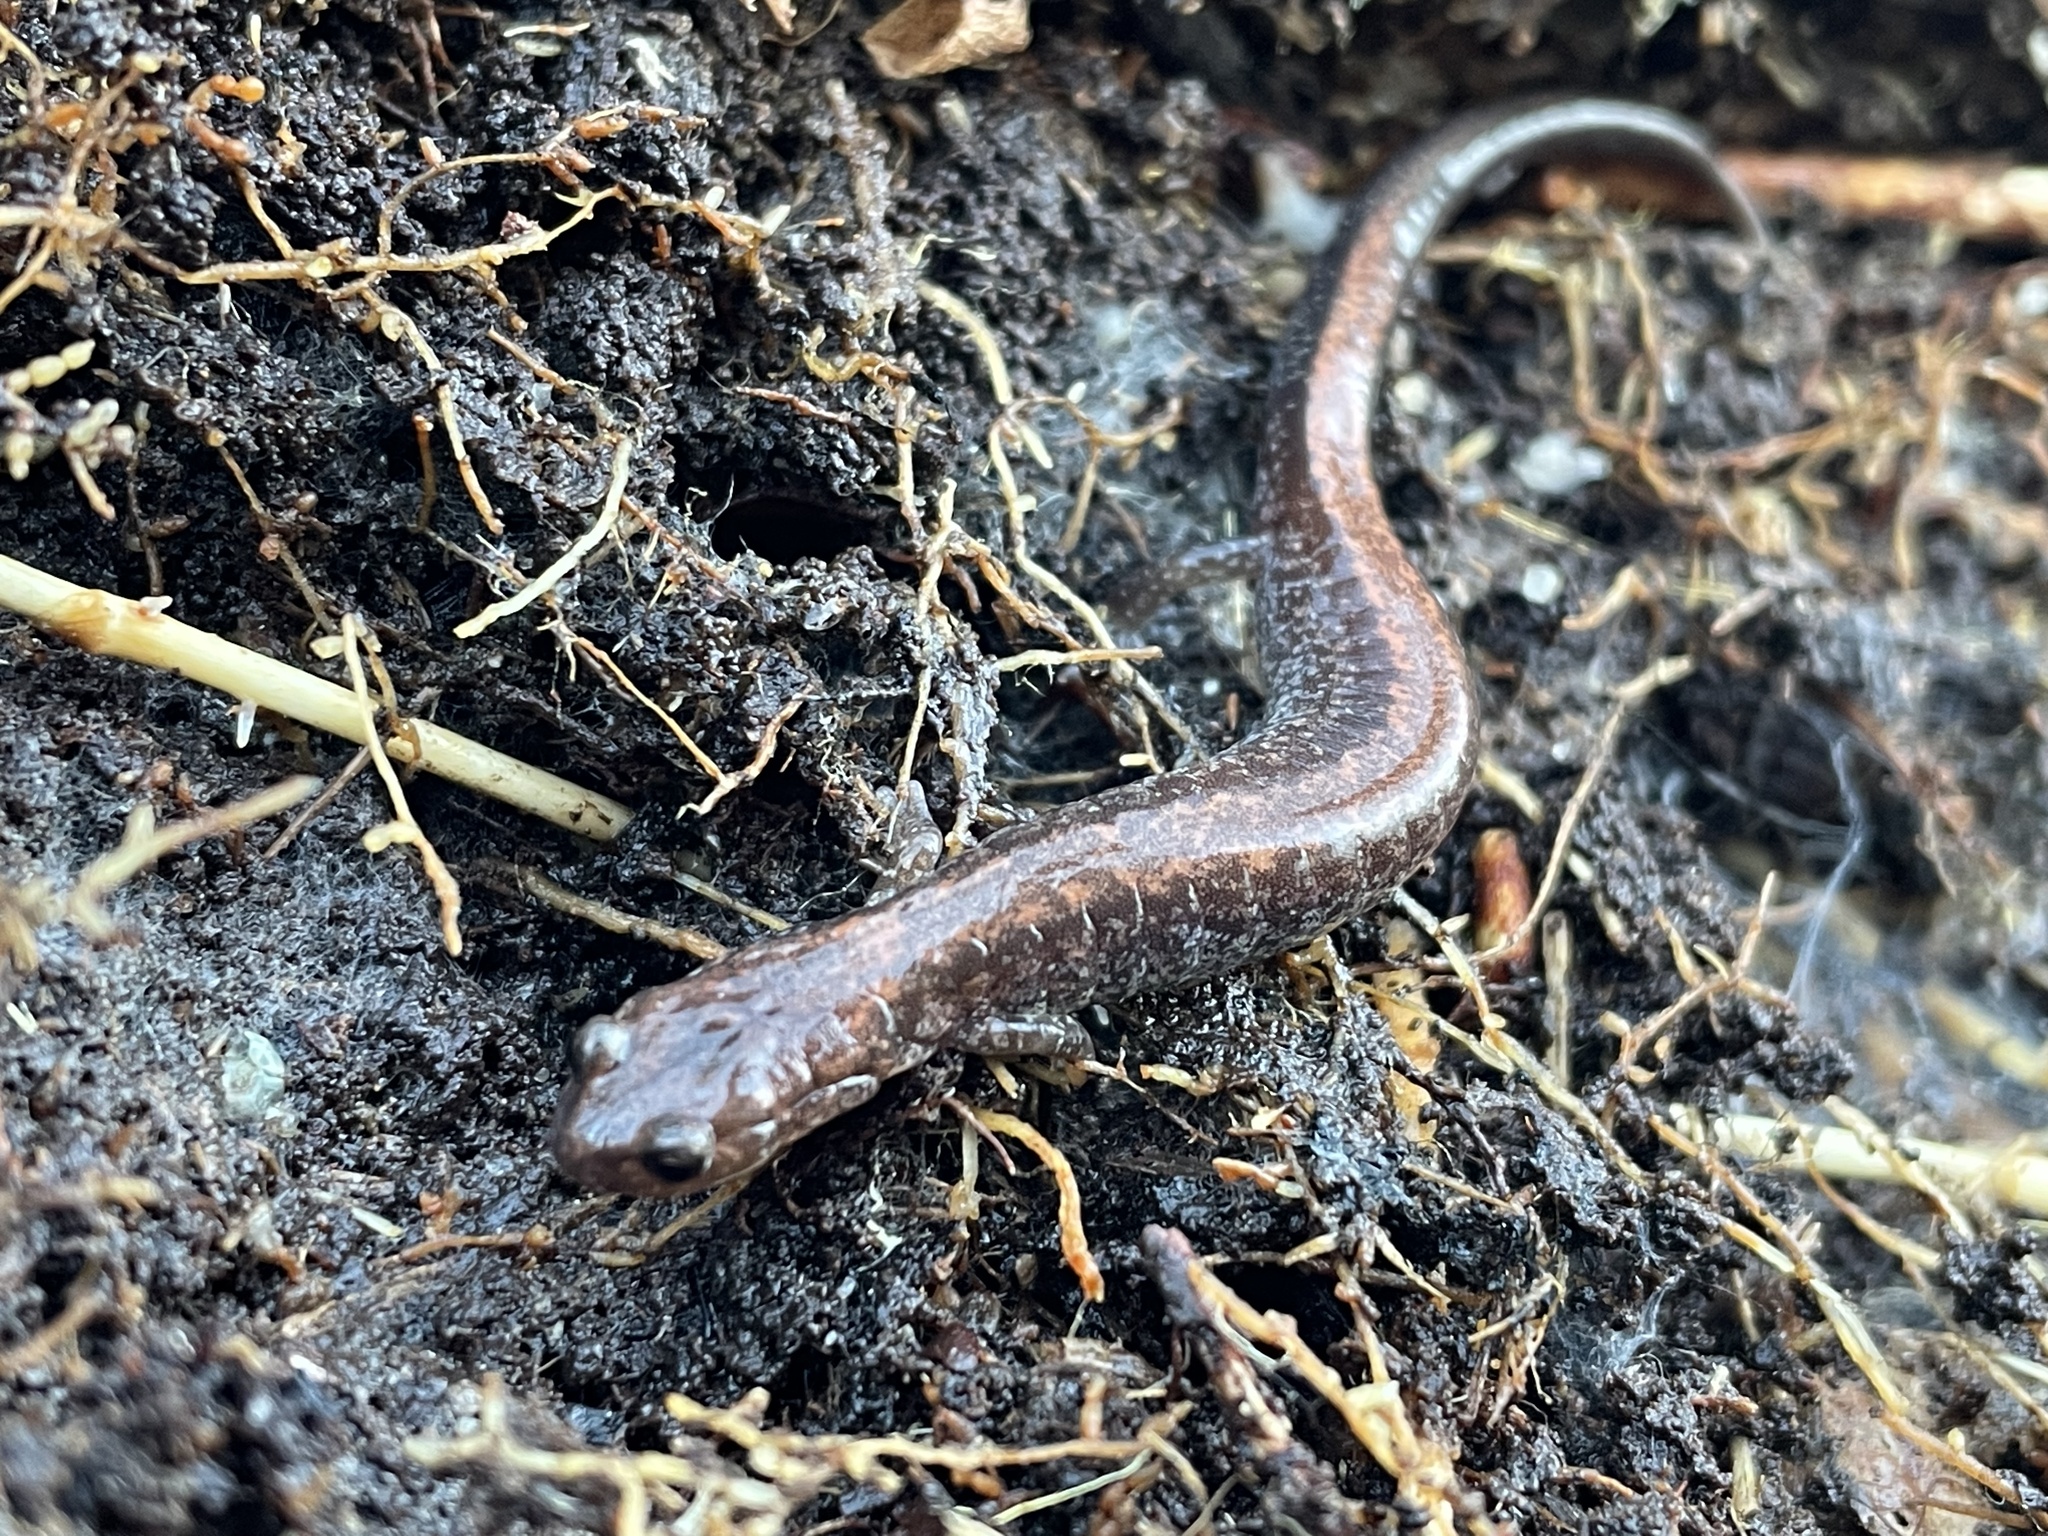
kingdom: Animalia
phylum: Chordata
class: Amphibia
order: Caudata
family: Plethodontidae
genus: Plethodon
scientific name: Plethodon cinereus
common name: Redback salamander
